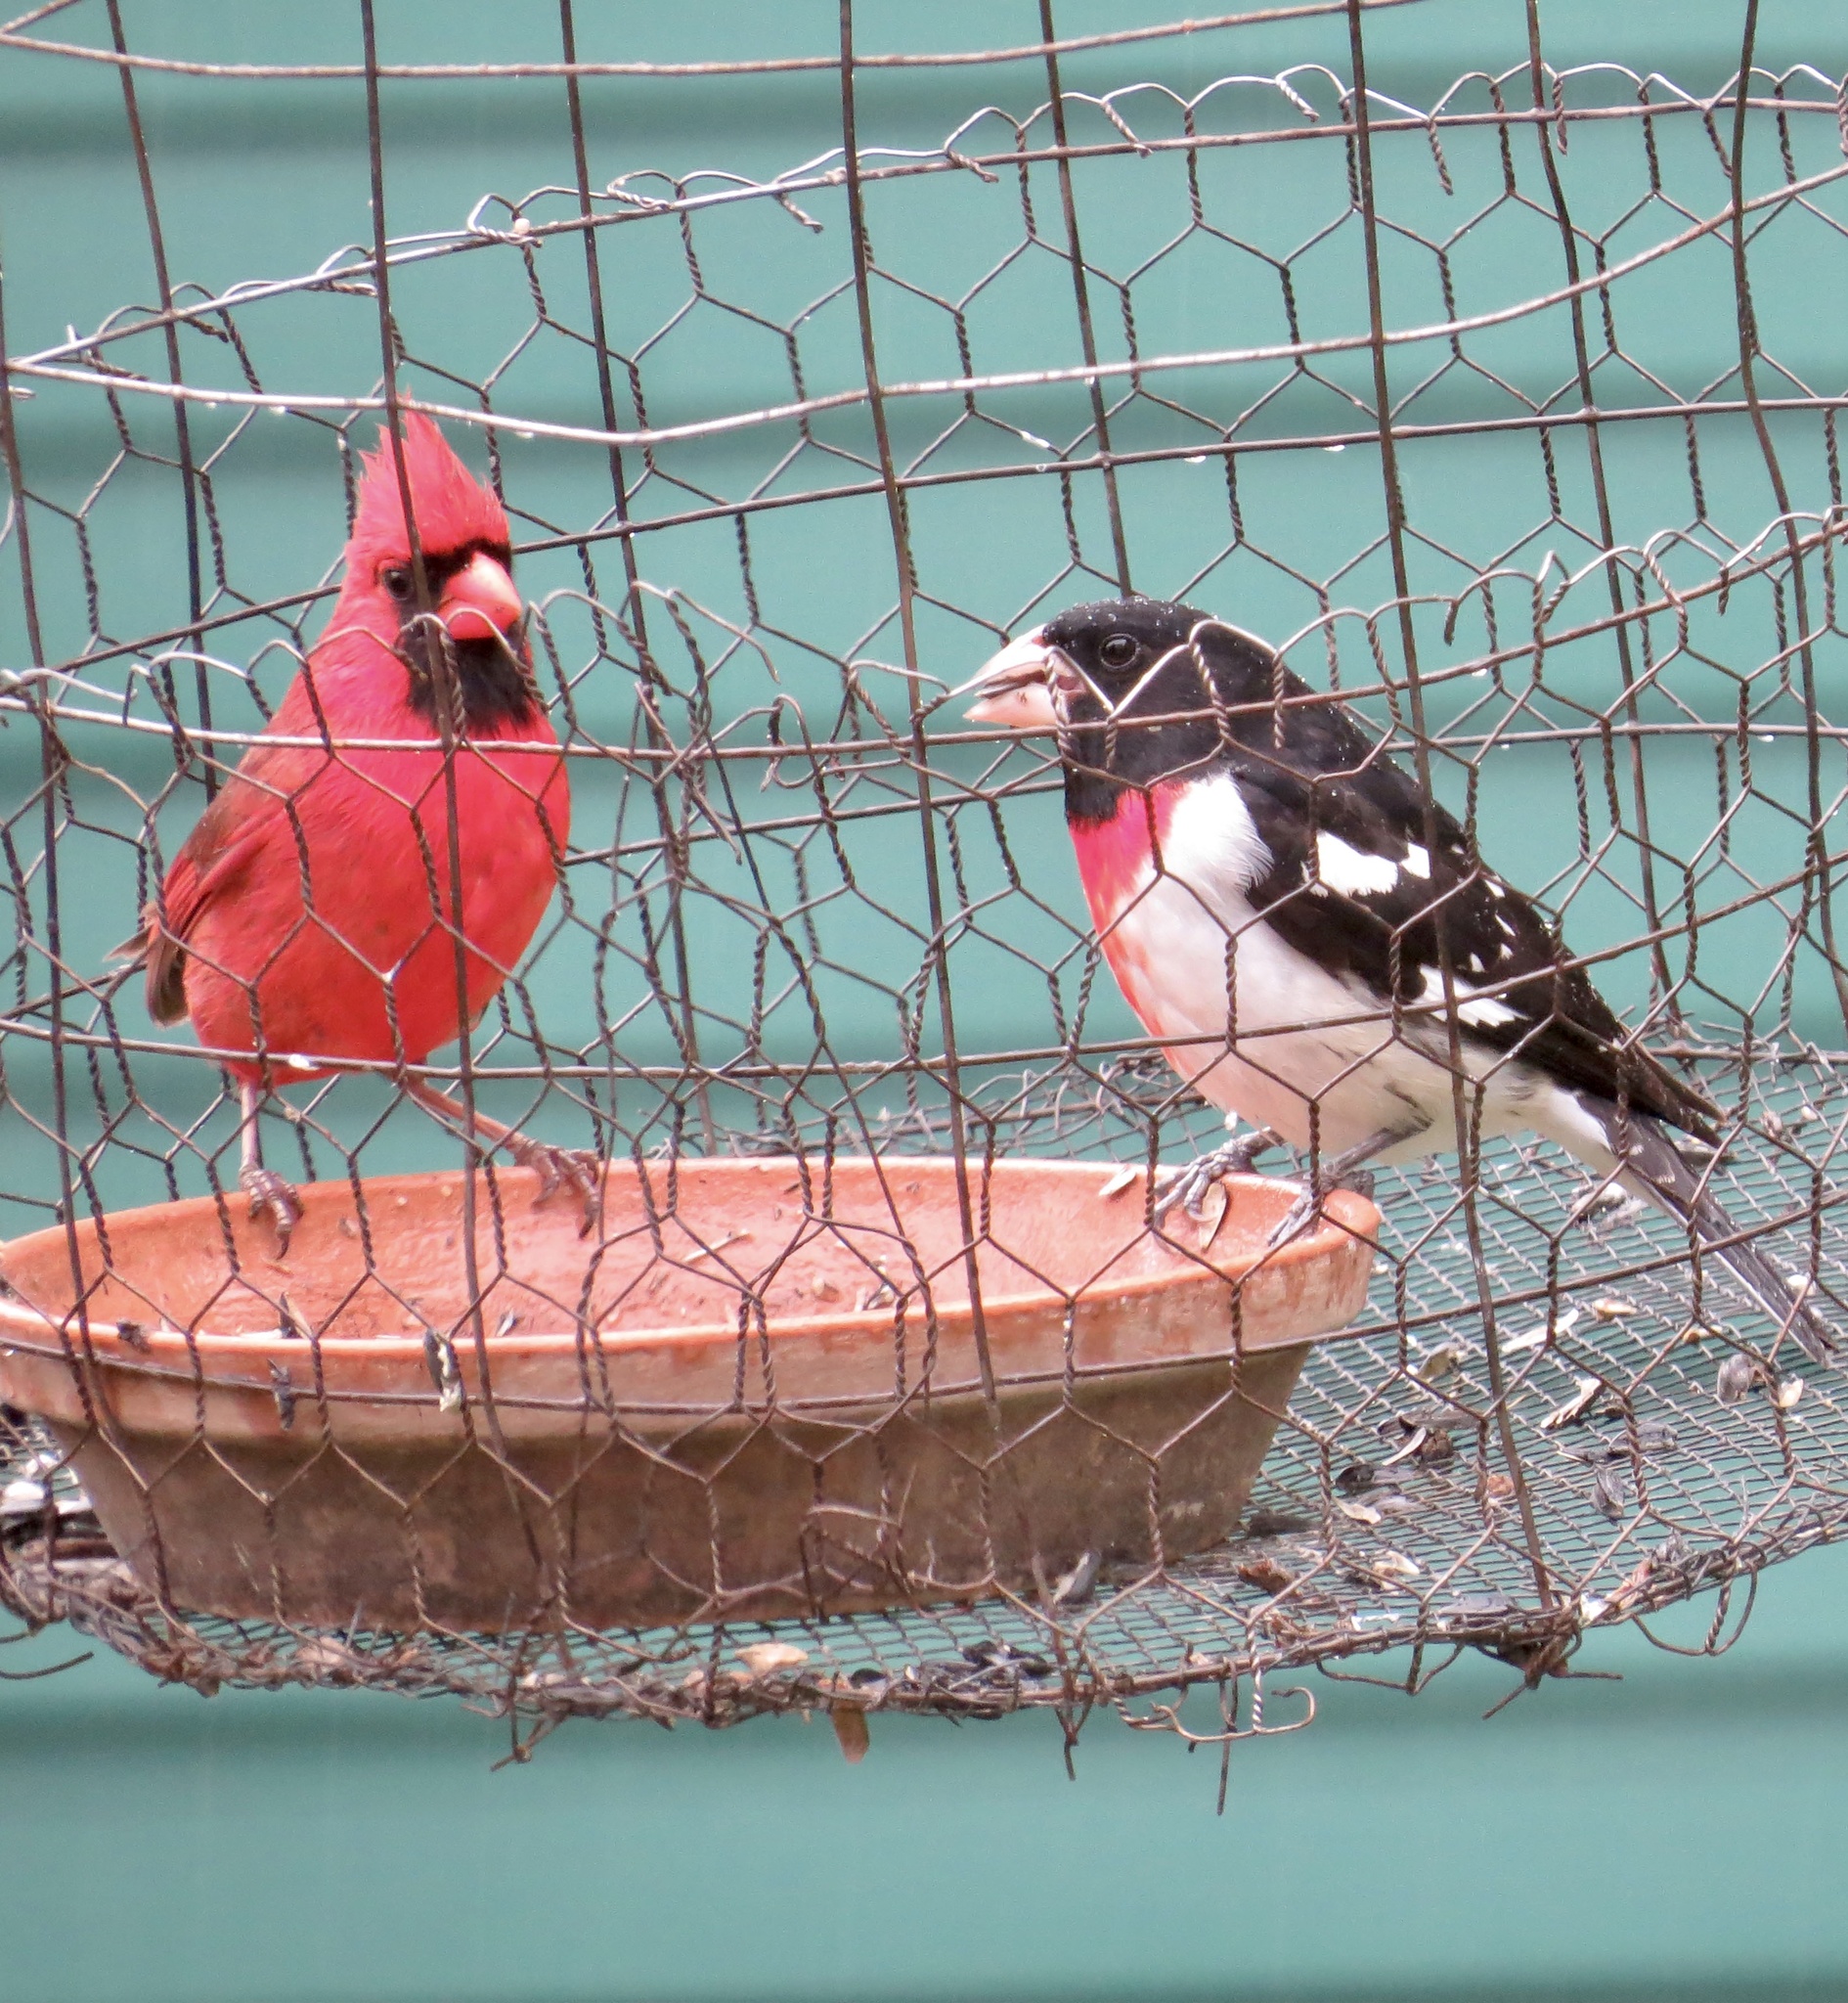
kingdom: Animalia
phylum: Chordata
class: Aves
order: Passeriformes
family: Cardinalidae
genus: Pheucticus
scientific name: Pheucticus ludovicianus
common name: Rose-breasted grosbeak
